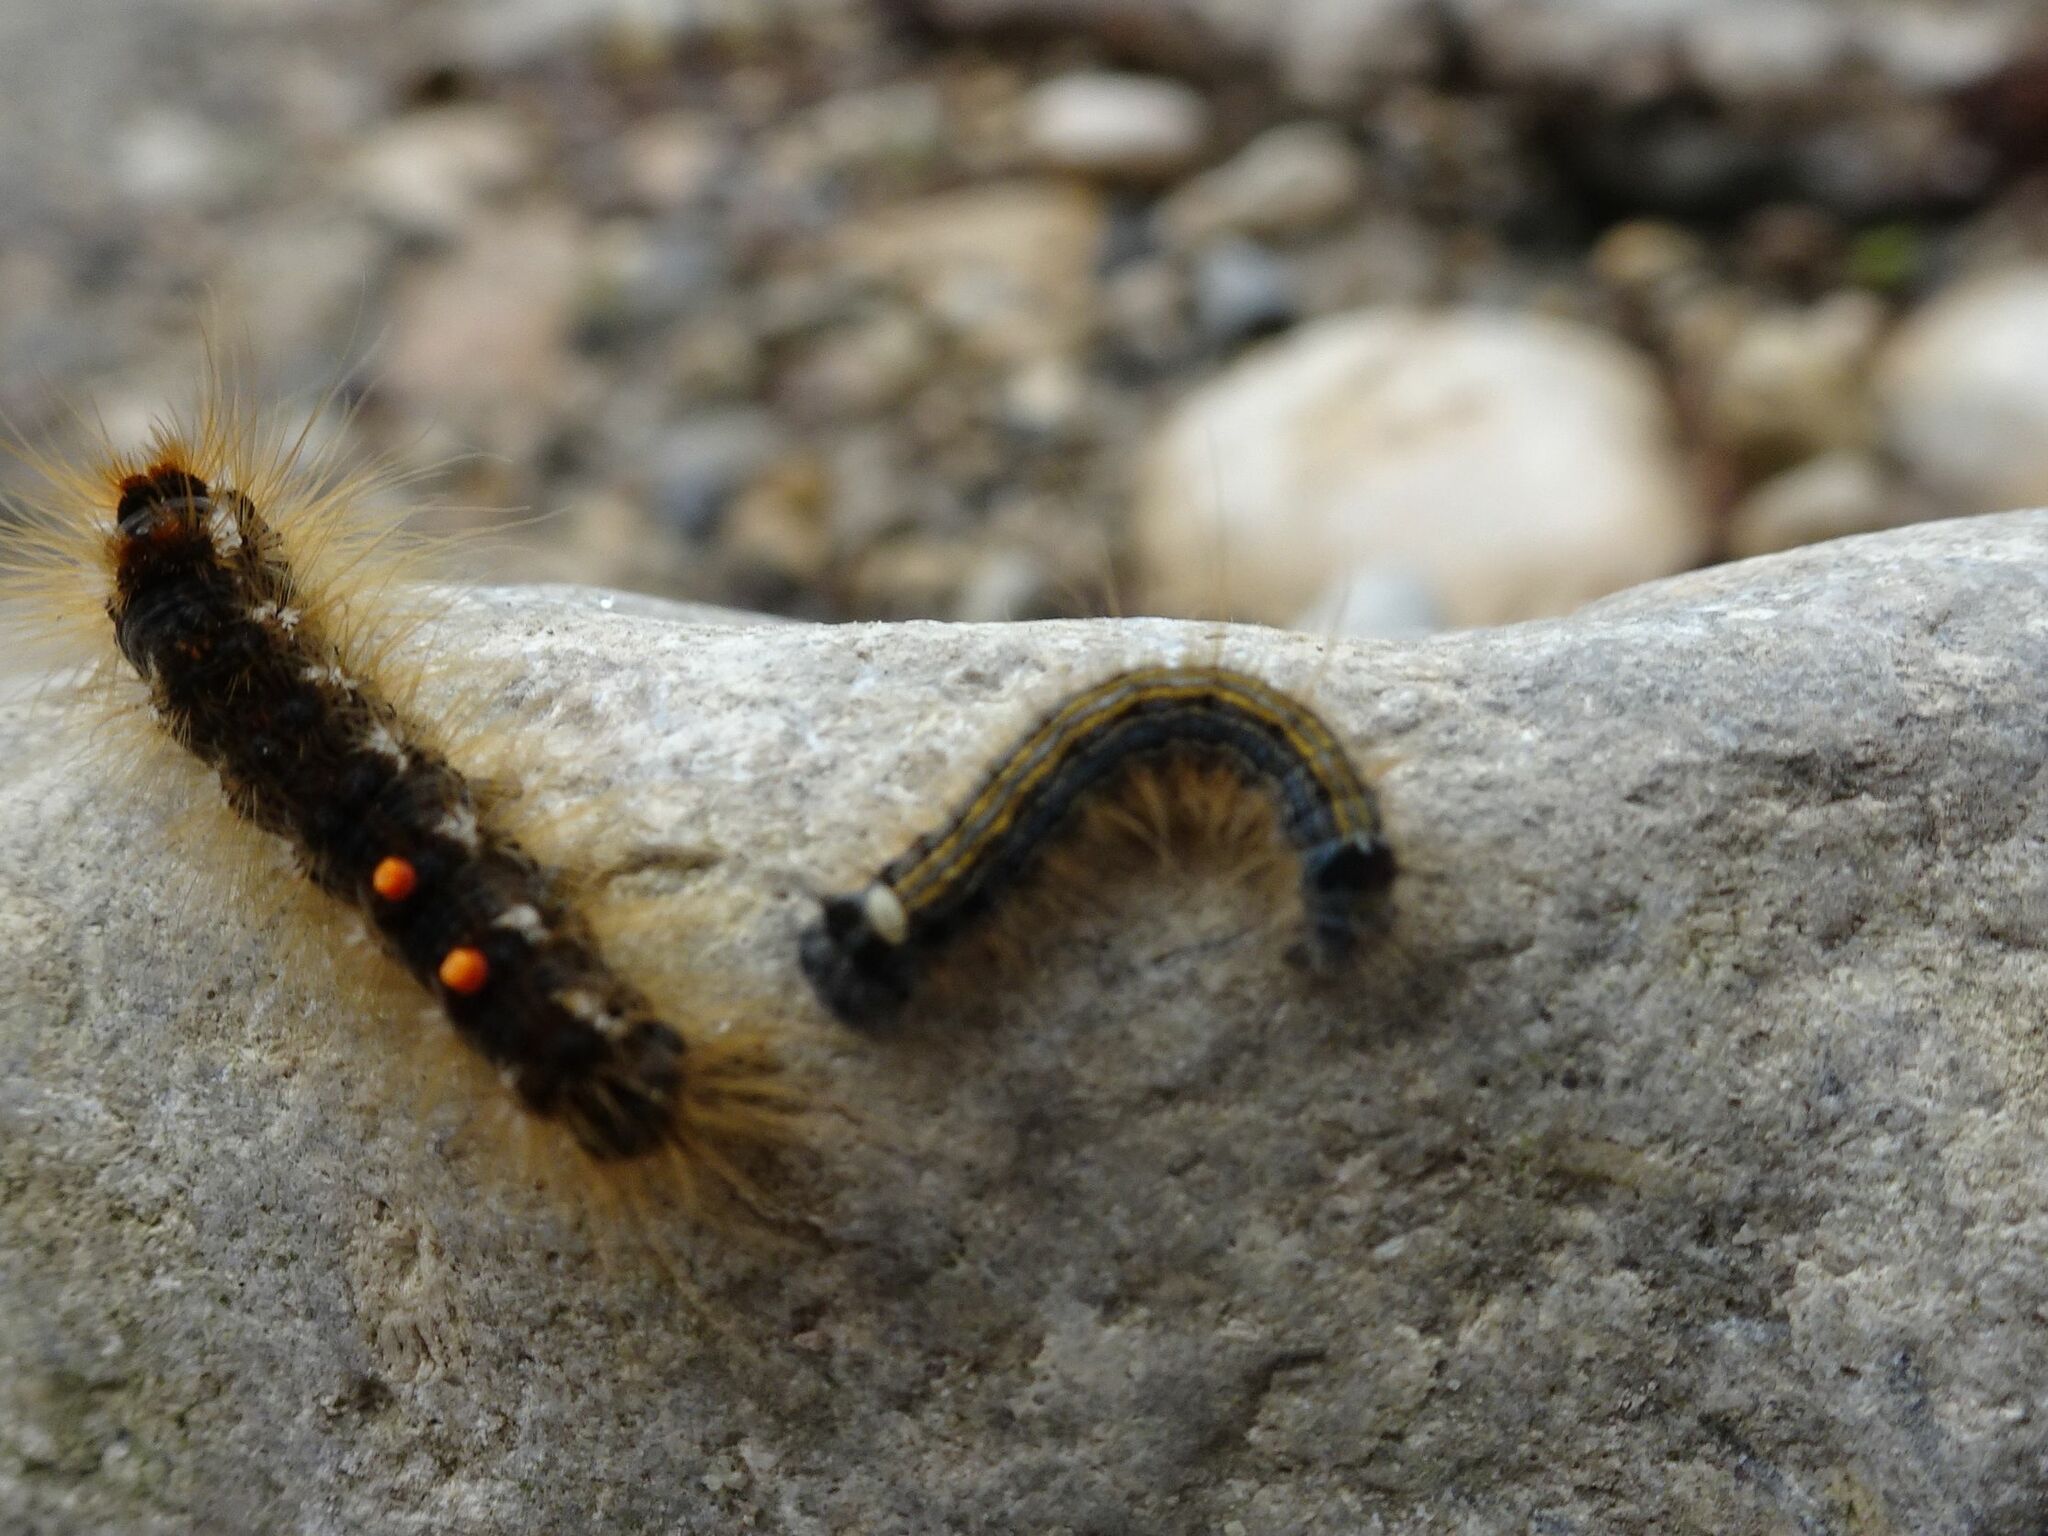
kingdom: Animalia
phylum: Arthropoda
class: Insecta
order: Lepidoptera
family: Lasiocampidae
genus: Malacosoma
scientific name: Malacosoma neustria
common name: The lackey
